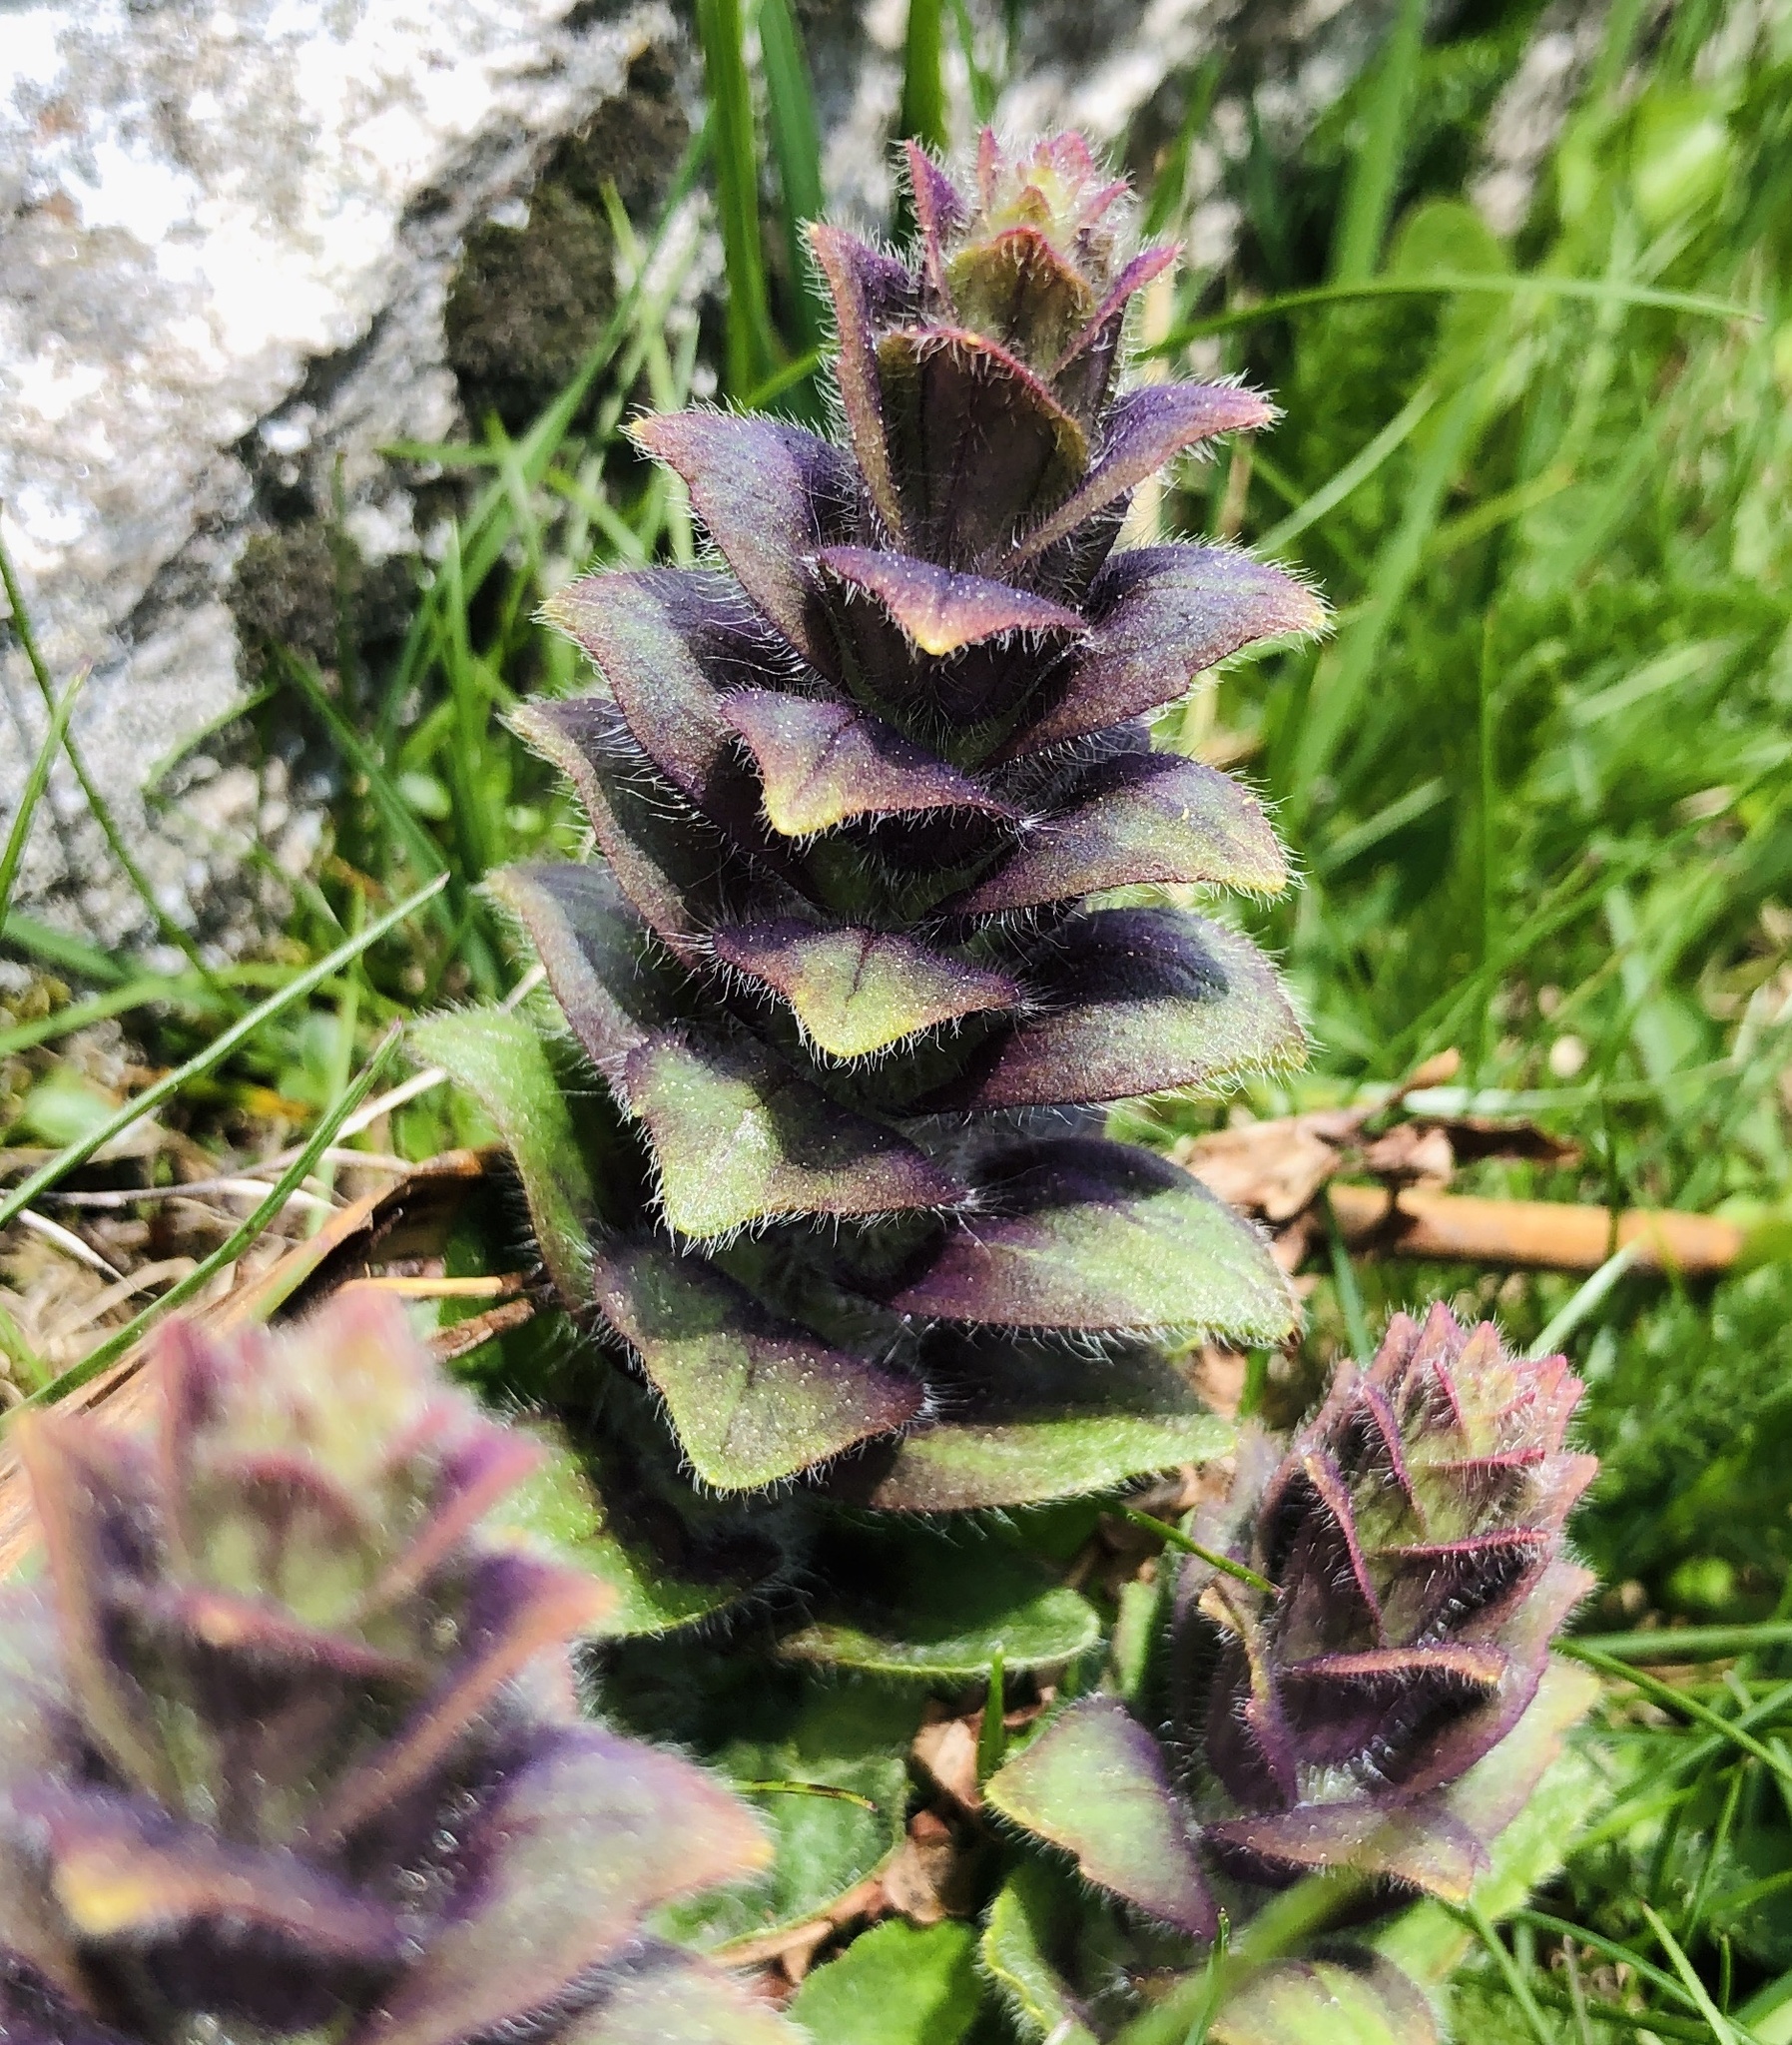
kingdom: Plantae
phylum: Tracheophyta
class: Magnoliopsida
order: Lamiales
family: Lamiaceae
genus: Ajuga
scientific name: Ajuga pyramidalis
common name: Pyramid bugle
